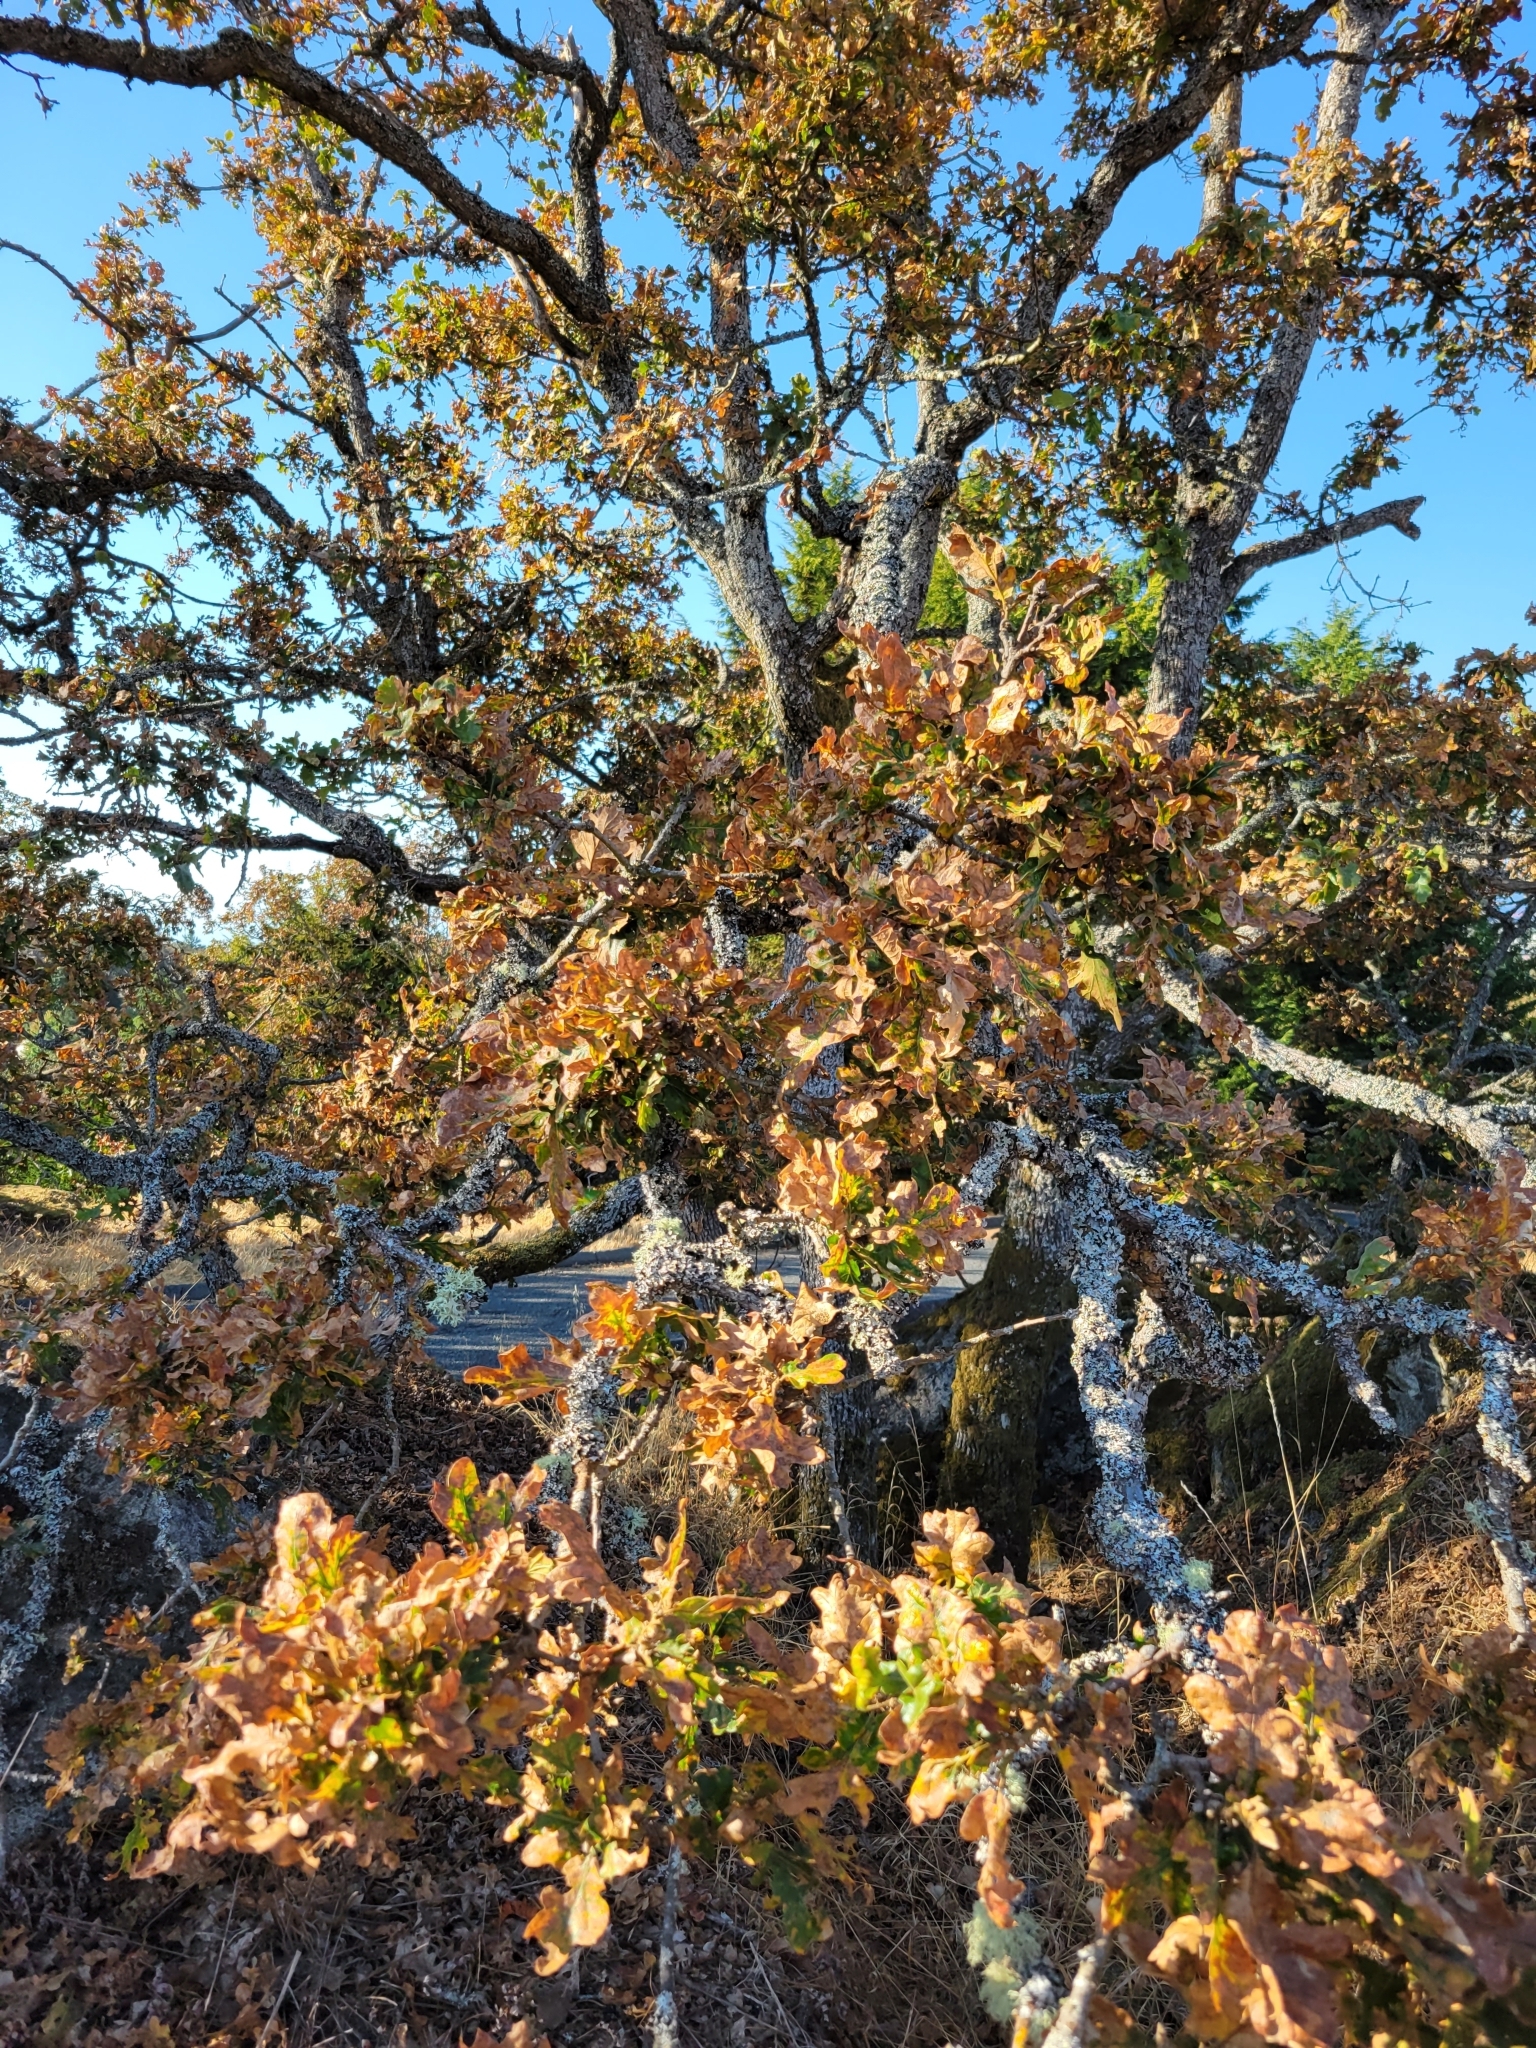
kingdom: Plantae
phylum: Tracheophyta
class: Magnoliopsida
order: Fagales
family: Fagaceae
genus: Quercus
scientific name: Quercus garryana
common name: Garry oak
